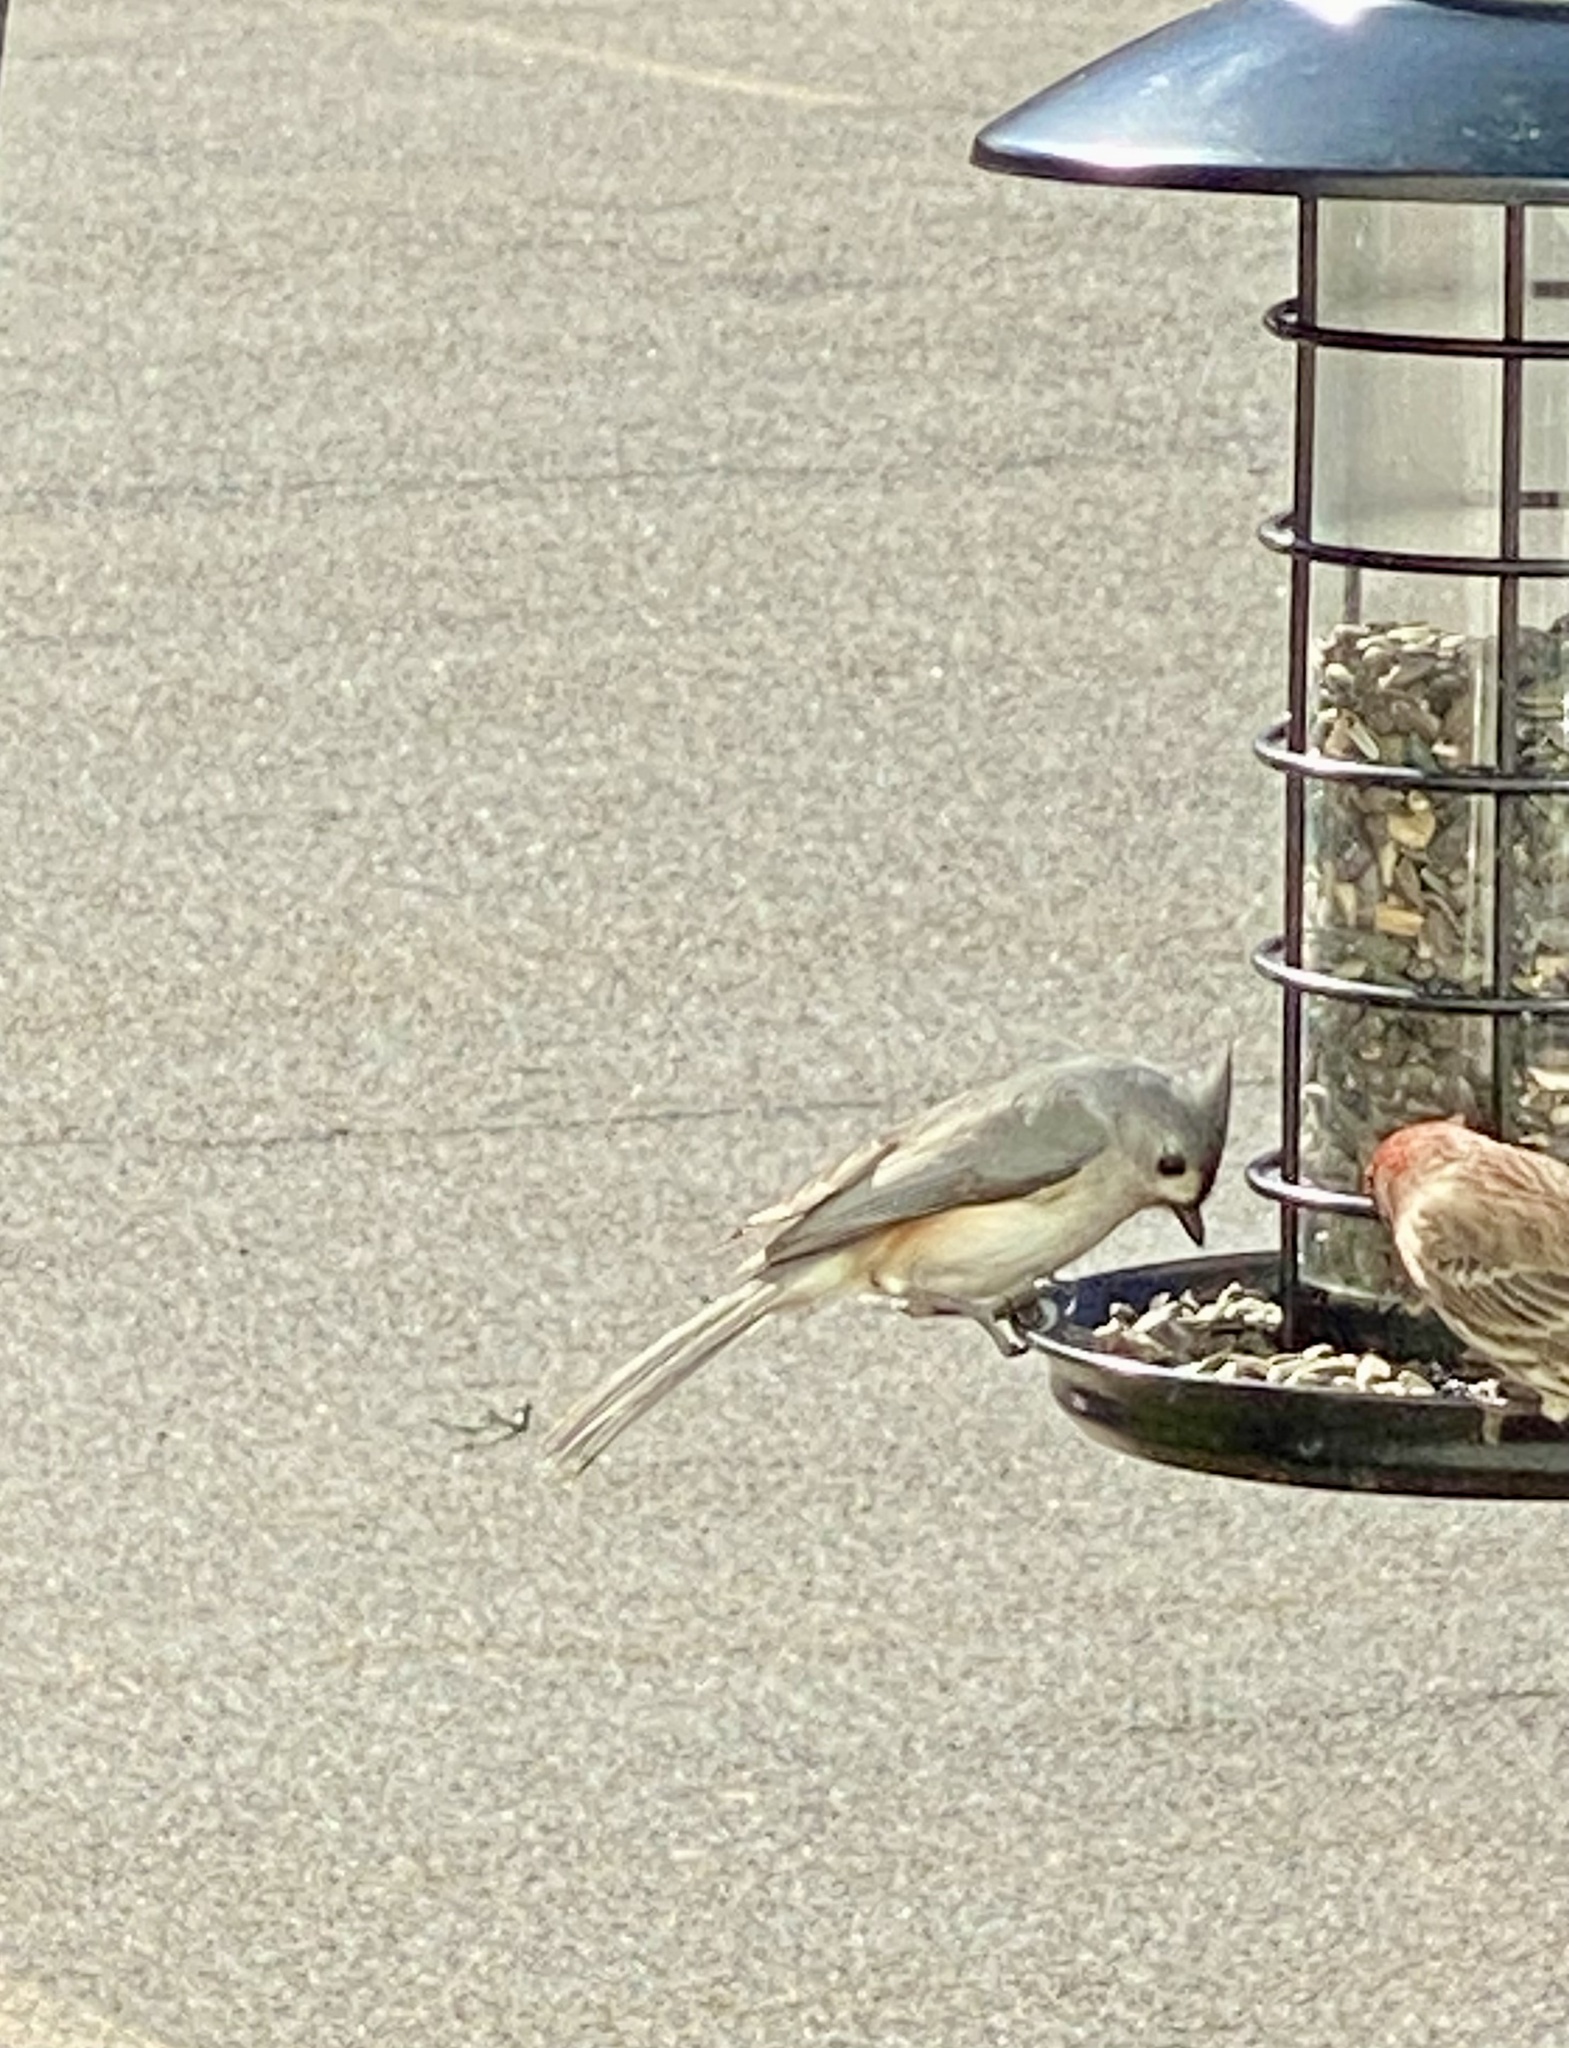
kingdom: Animalia
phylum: Chordata
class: Aves
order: Passeriformes
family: Paridae
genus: Baeolophus
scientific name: Baeolophus bicolor
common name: Tufted titmouse
